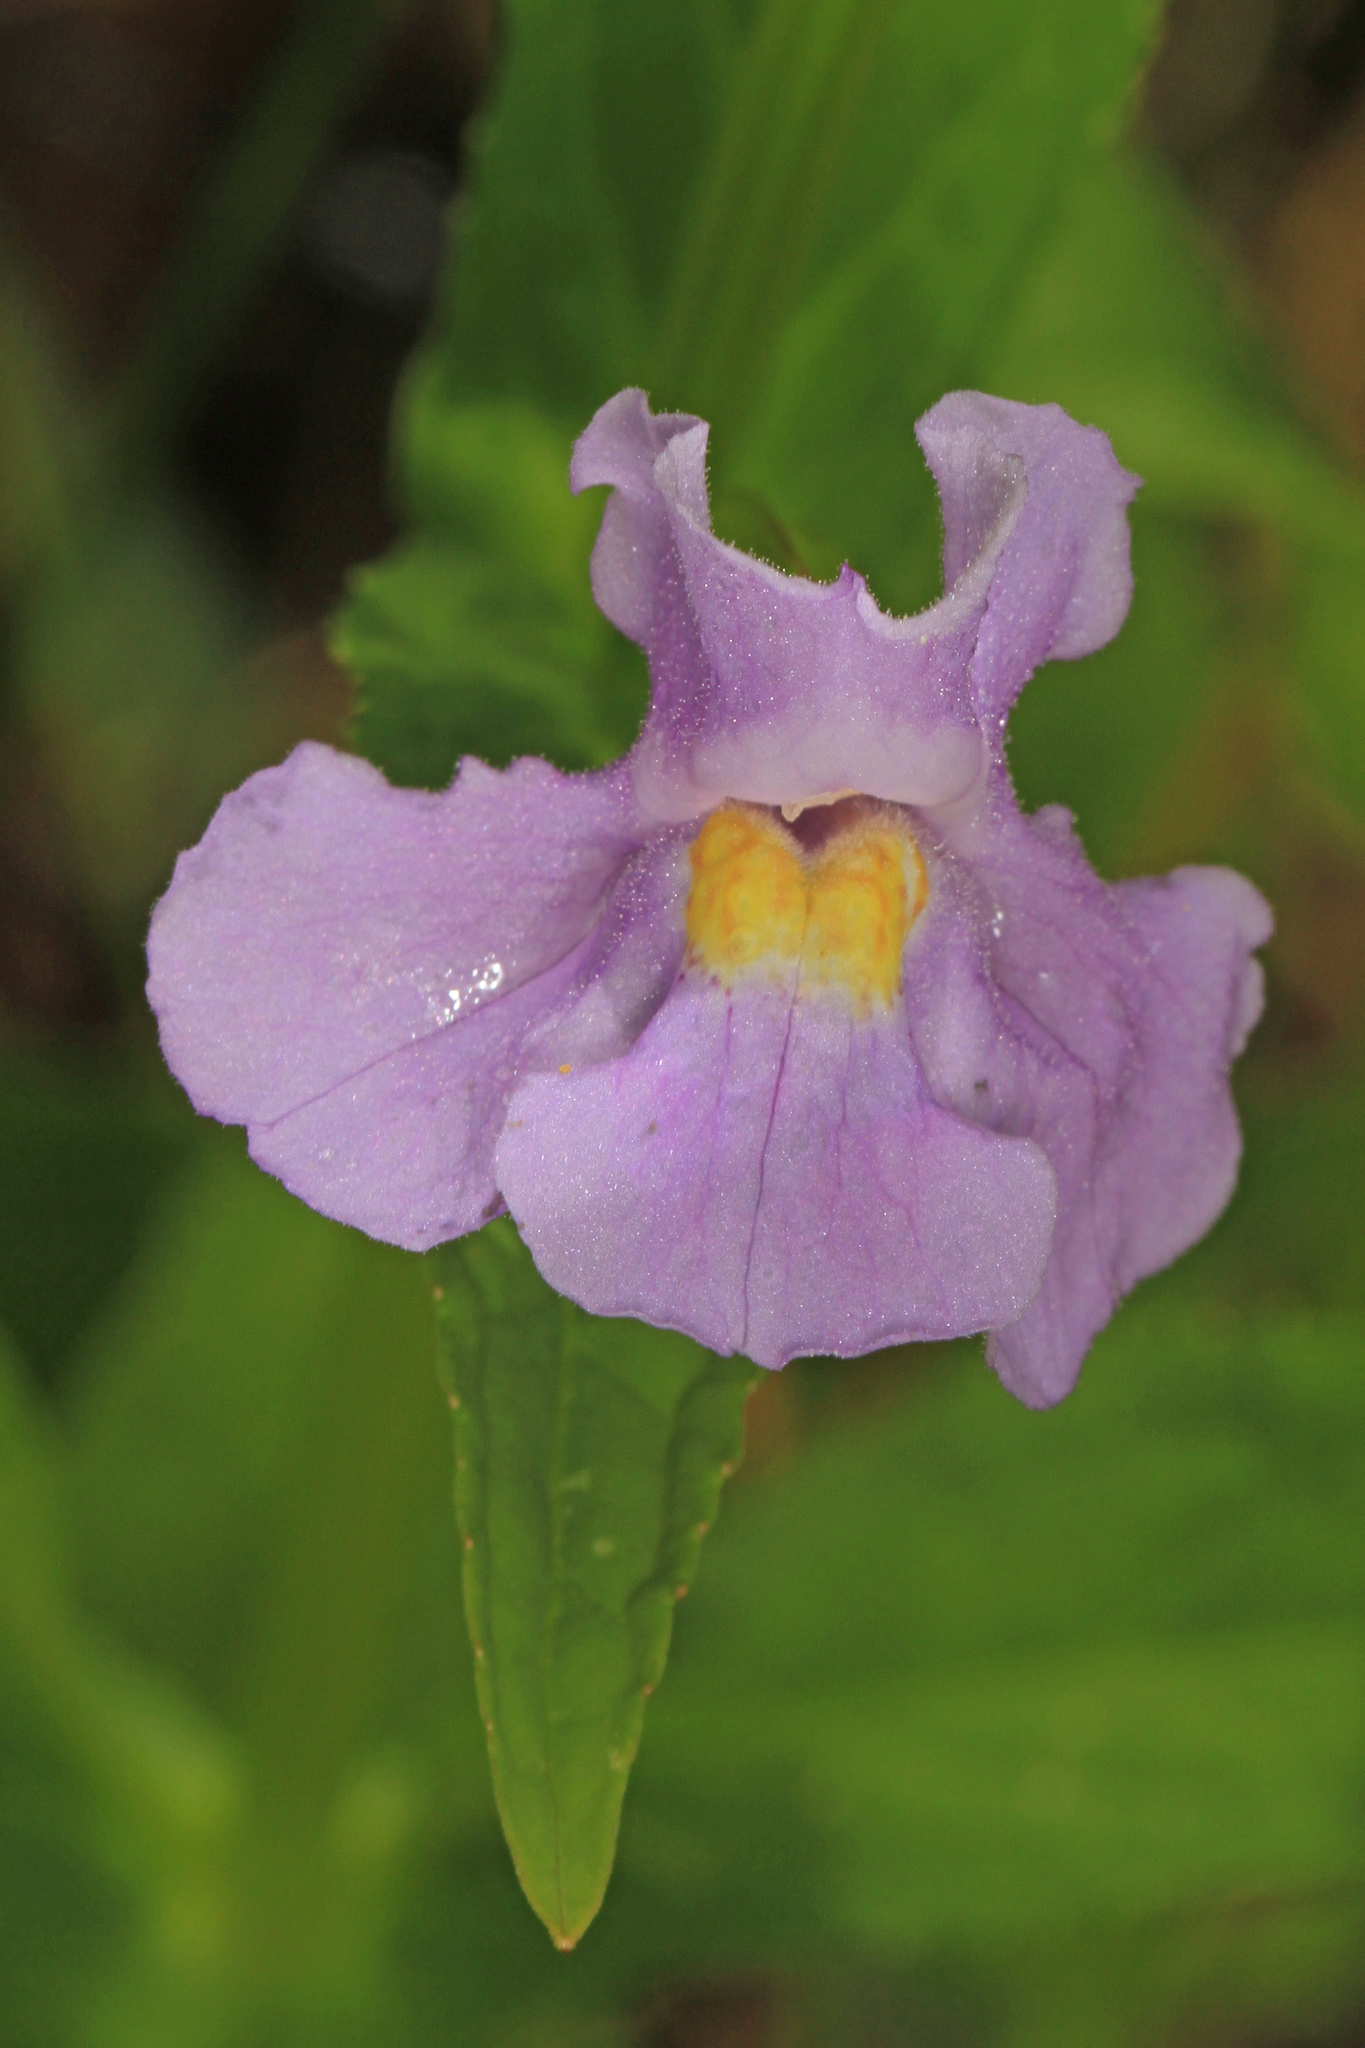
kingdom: Plantae
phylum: Tracheophyta
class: Magnoliopsida
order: Lamiales
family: Phrymaceae
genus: Mimulus
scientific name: Mimulus ringens
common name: Allegheny monkeyflower
